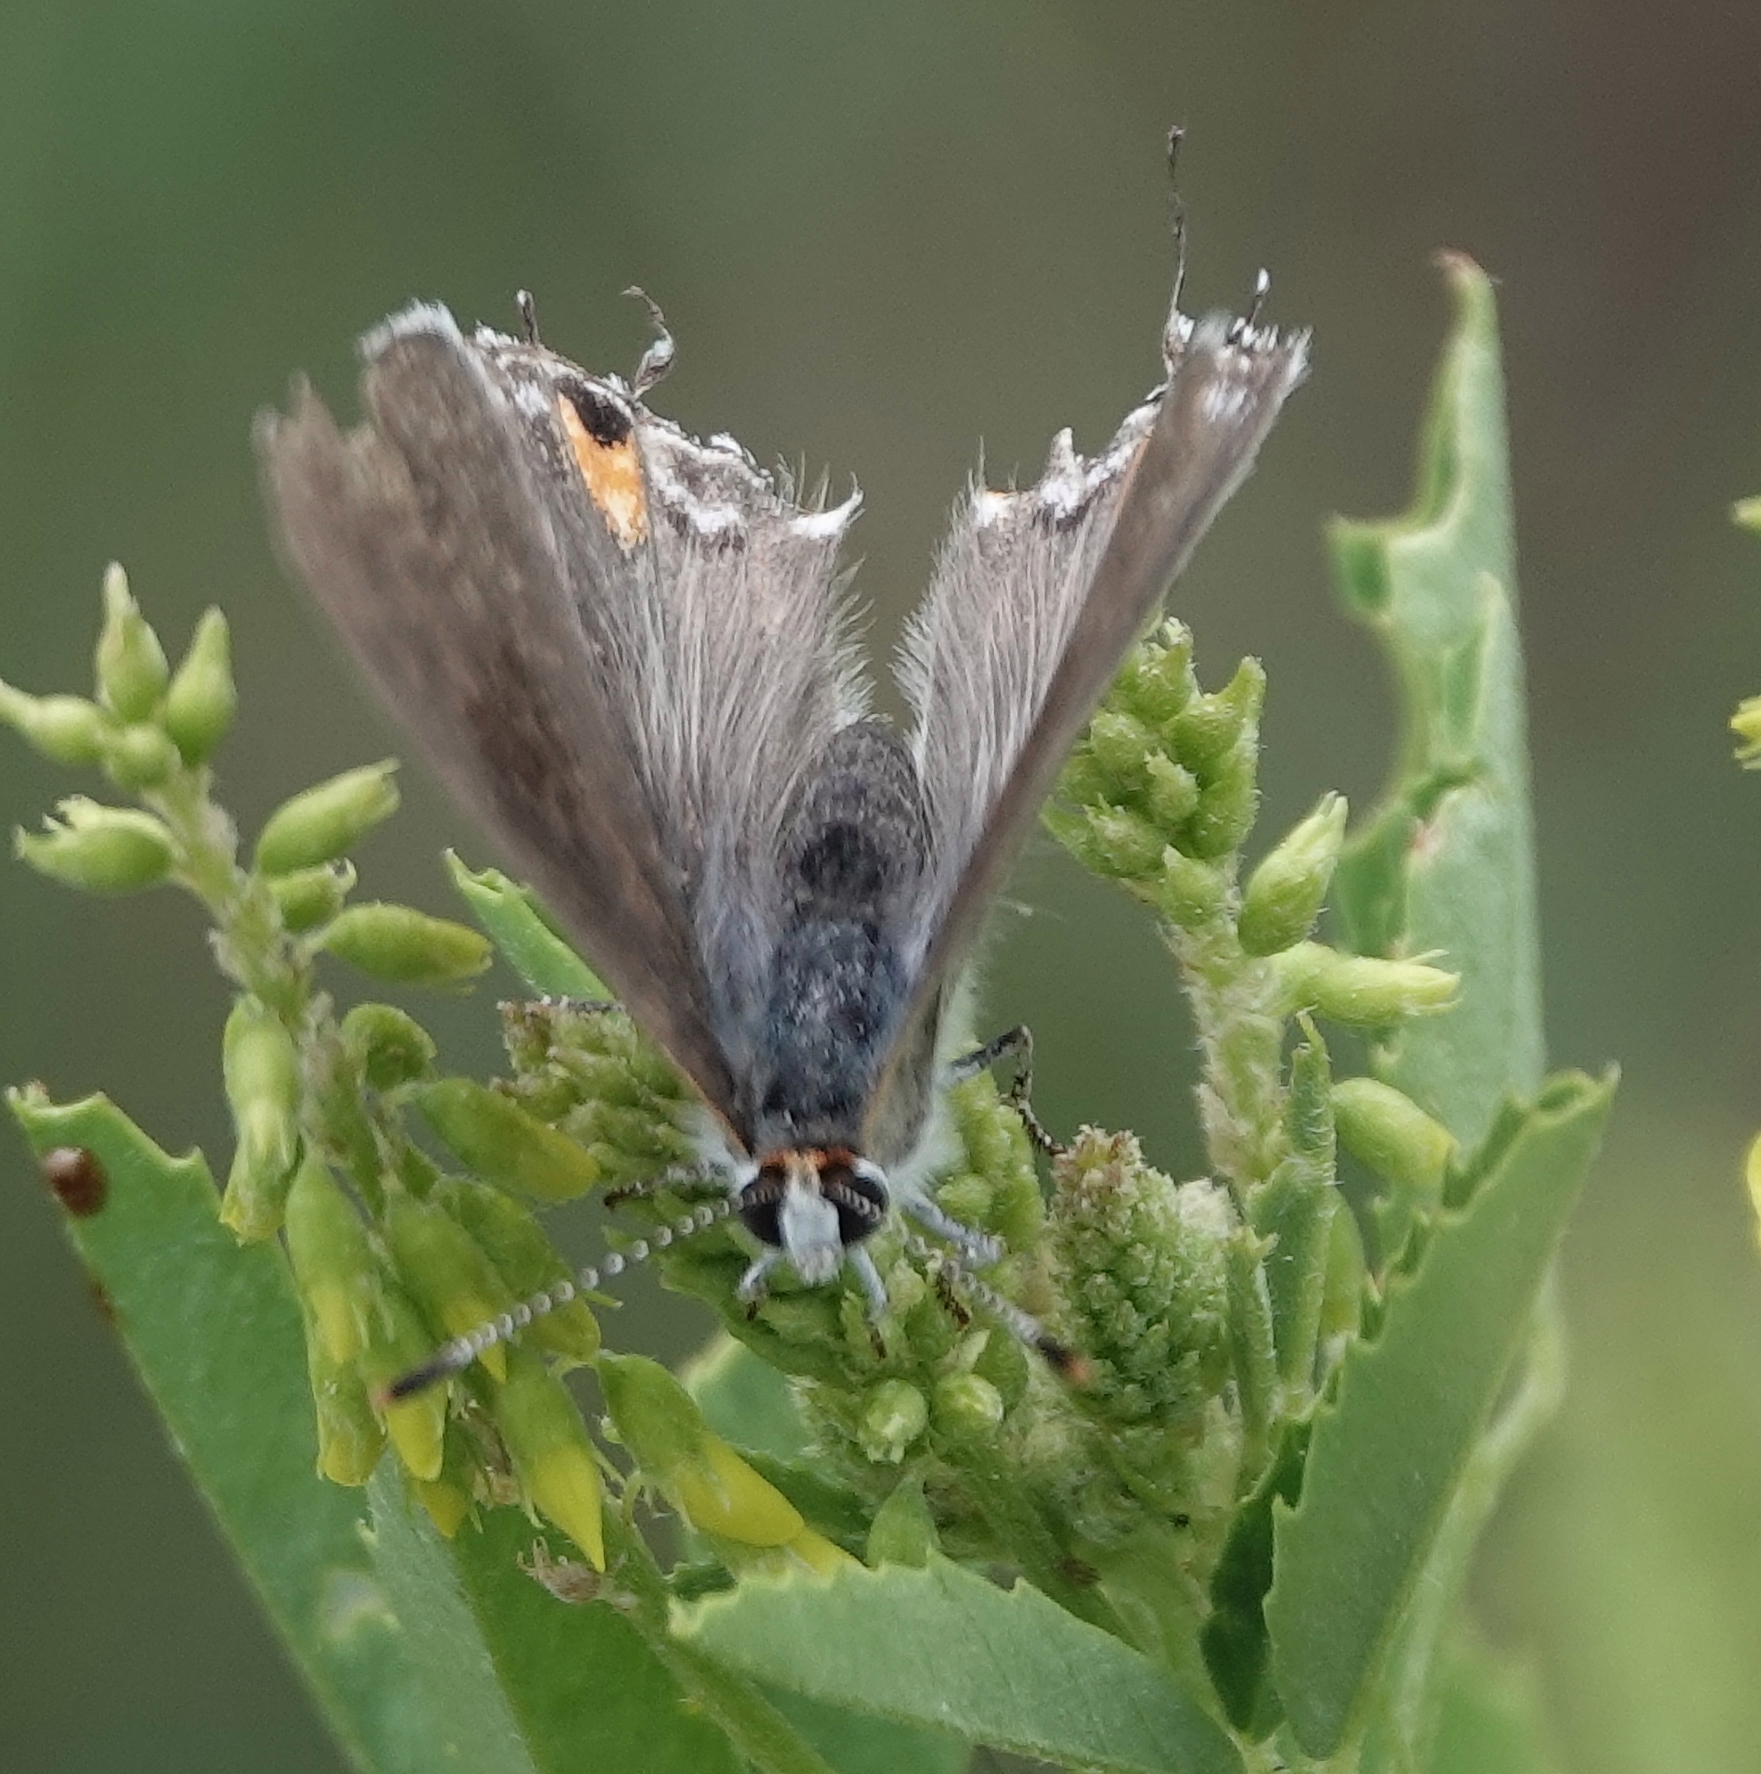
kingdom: Animalia
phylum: Arthropoda
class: Insecta
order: Lepidoptera
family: Lycaenidae
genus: Strymon
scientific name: Strymon melinus
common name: Gray hairstreak
